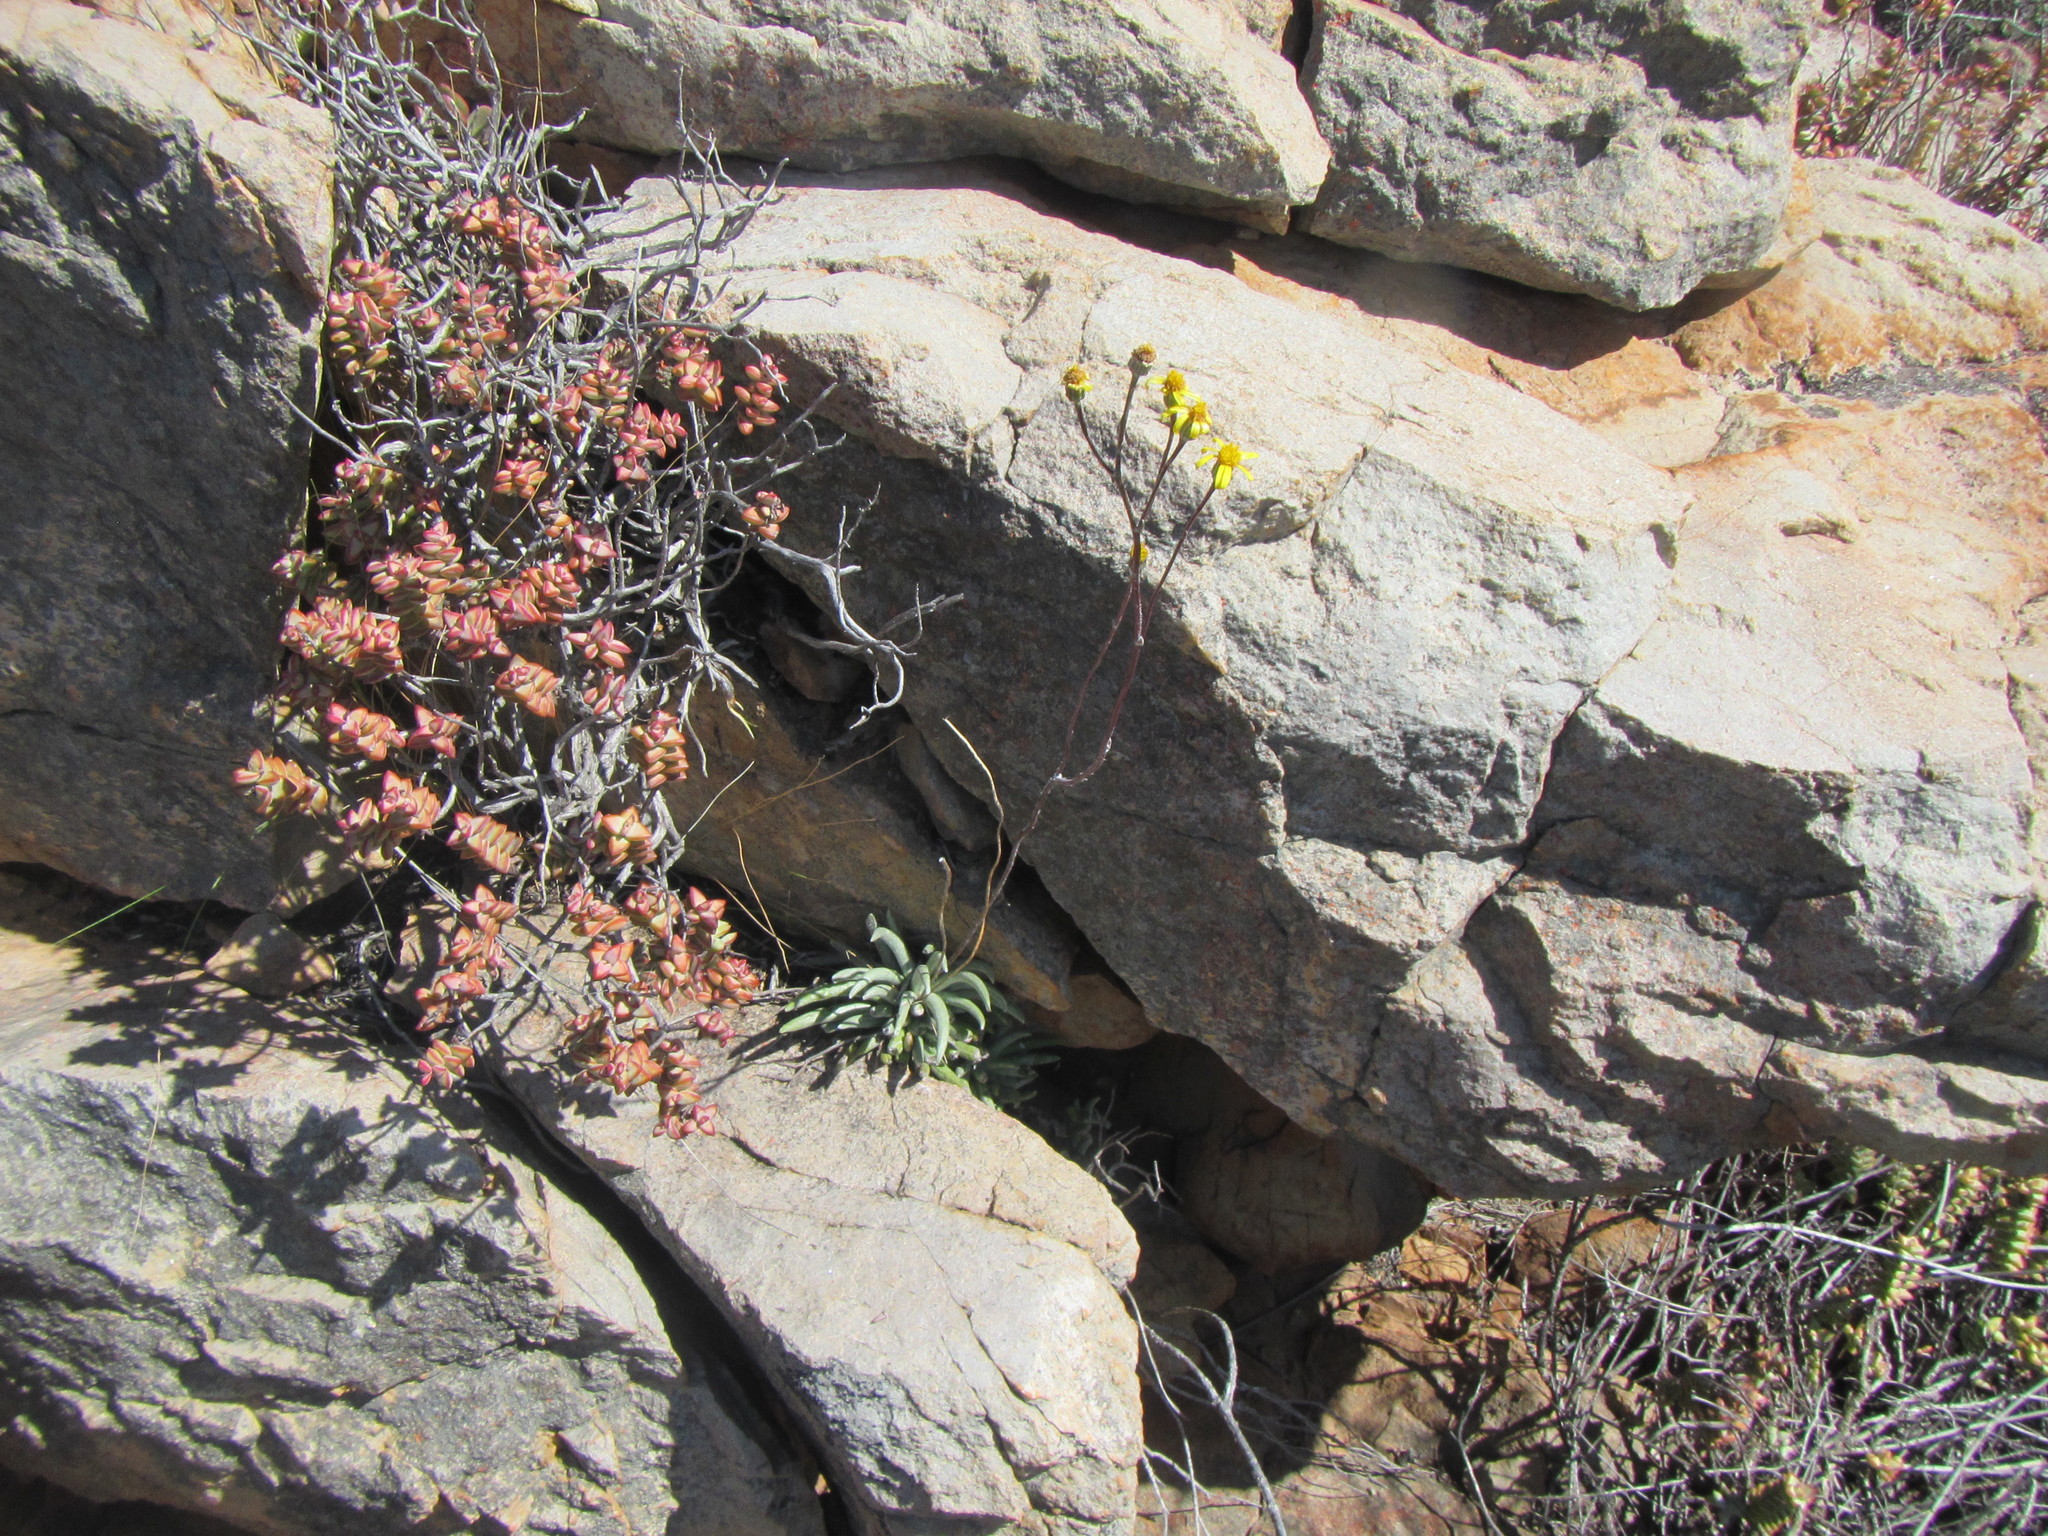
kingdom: Plantae
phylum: Tracheophyta
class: Magnoliopsida
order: Asterales
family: Asteraceae
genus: Caputia
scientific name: Caputia scaposa
